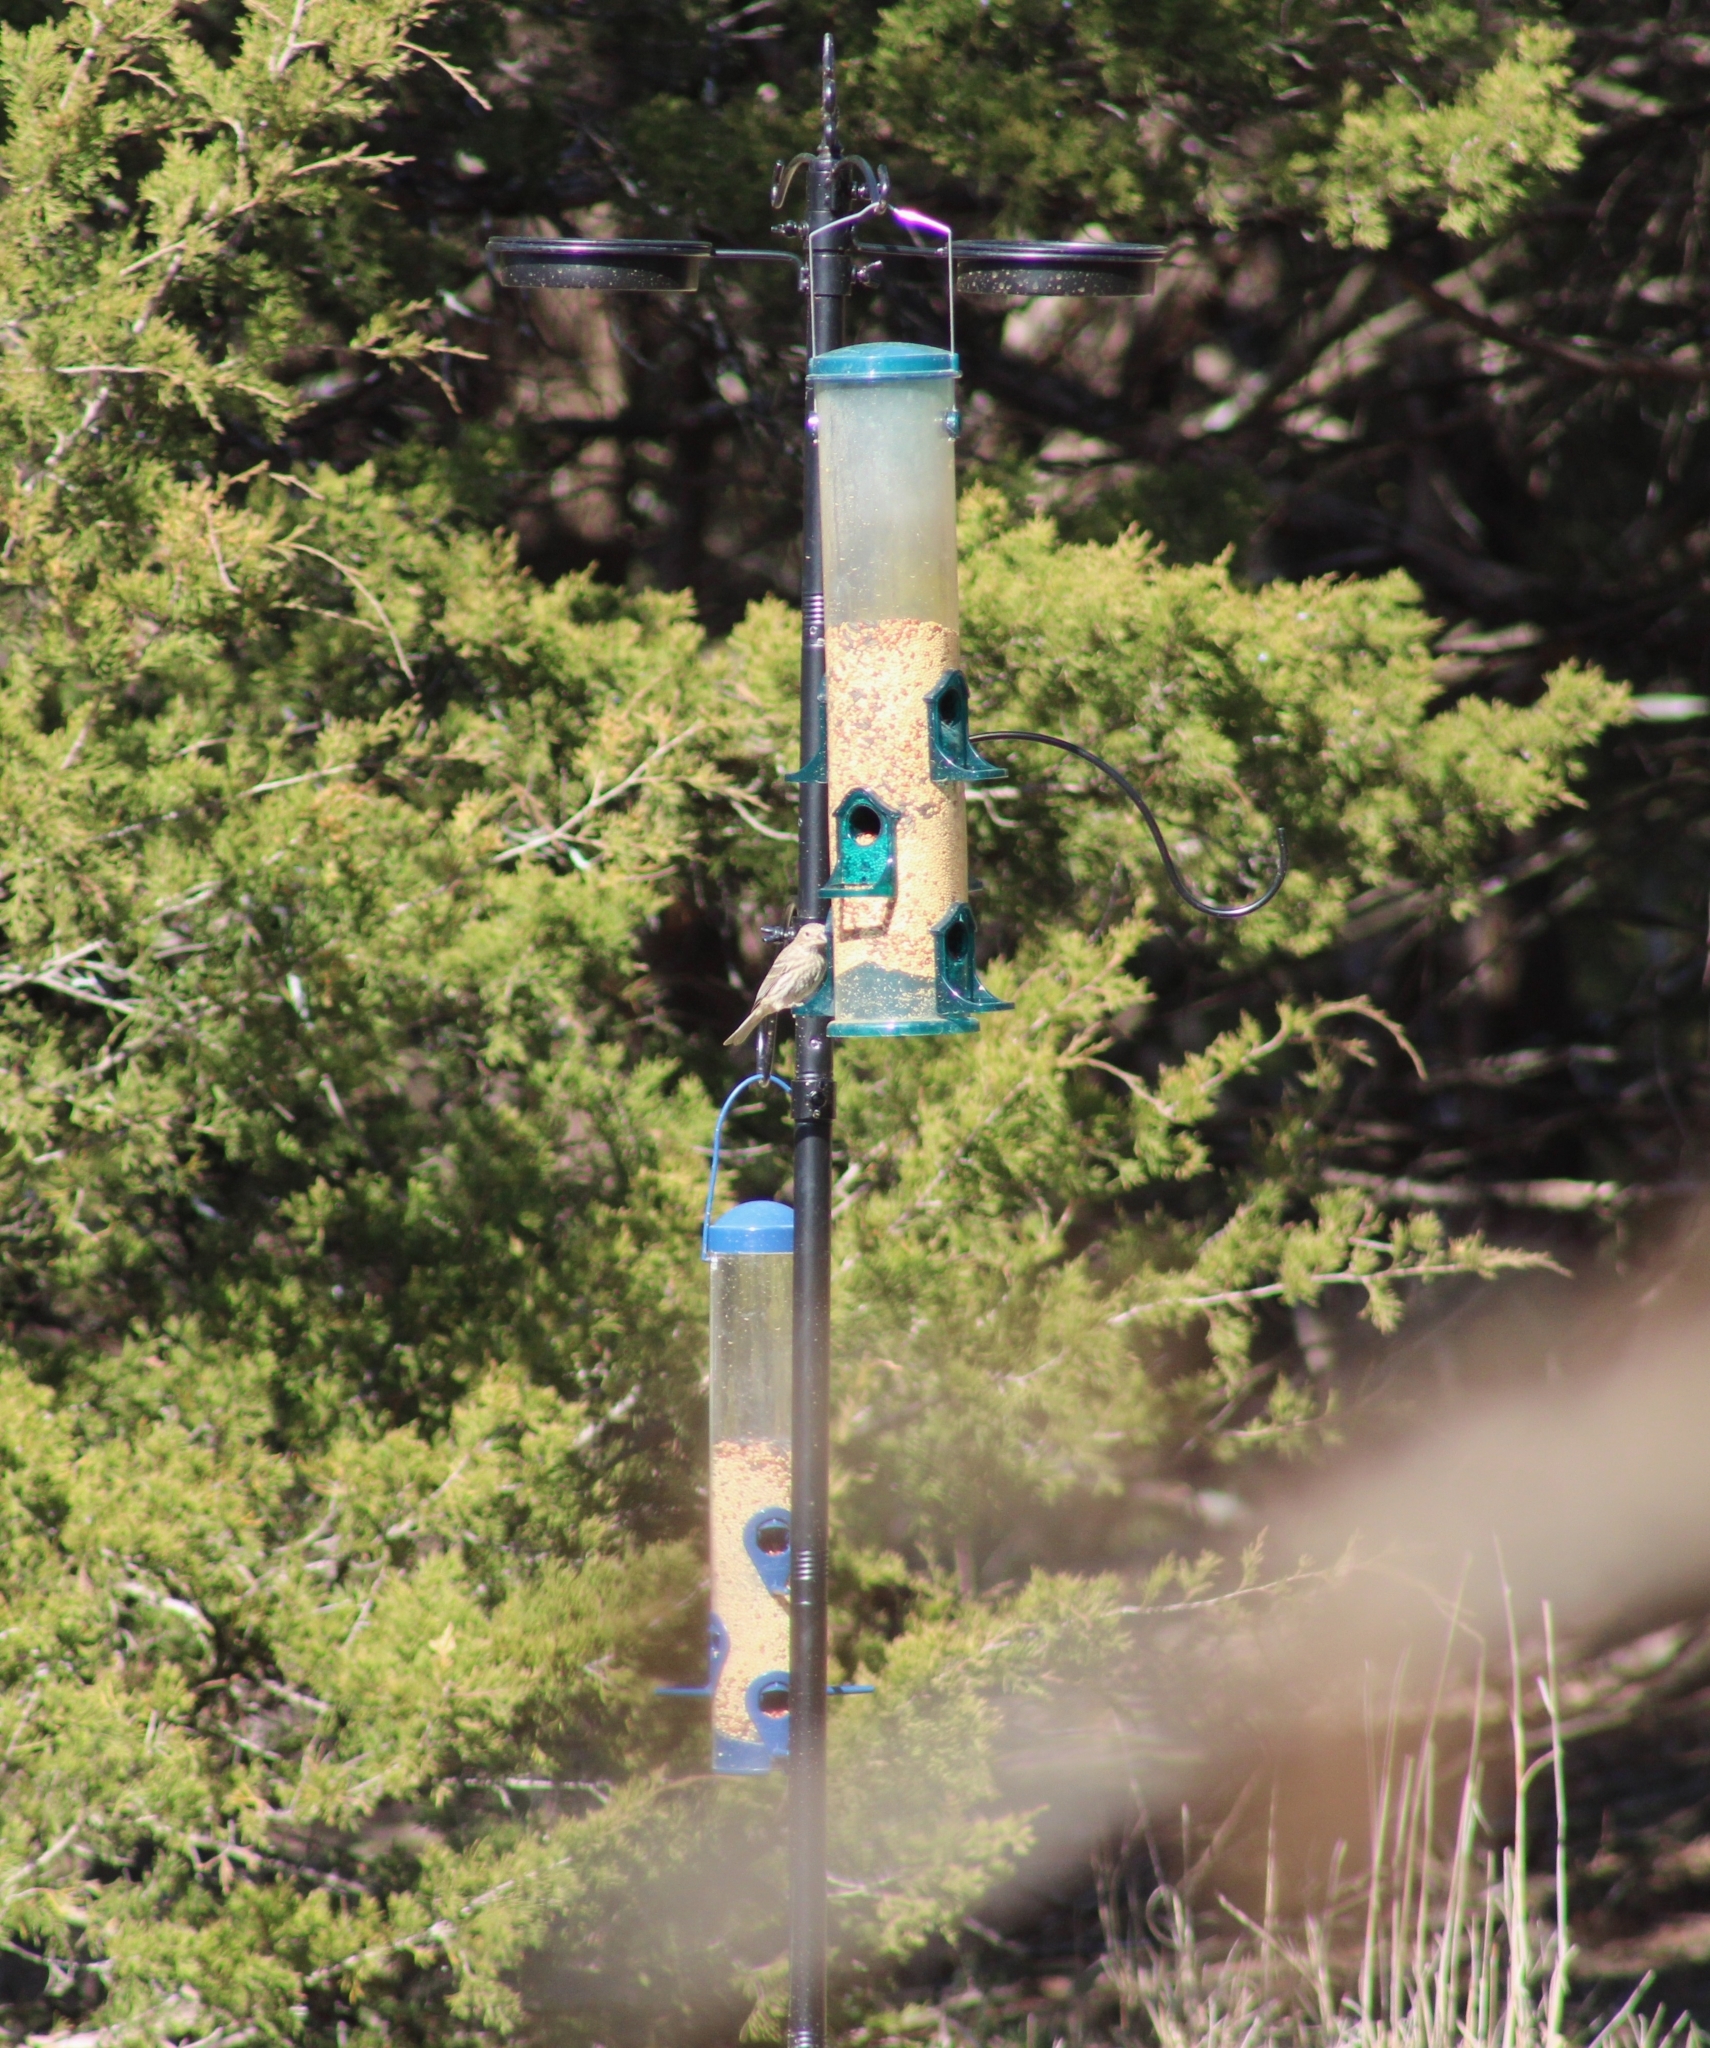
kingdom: Animalia
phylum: Chordata
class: Aves
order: Passeriformes
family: Fringillidae
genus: Haemorhous
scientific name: Haemorhous mexicanus
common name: House finch
